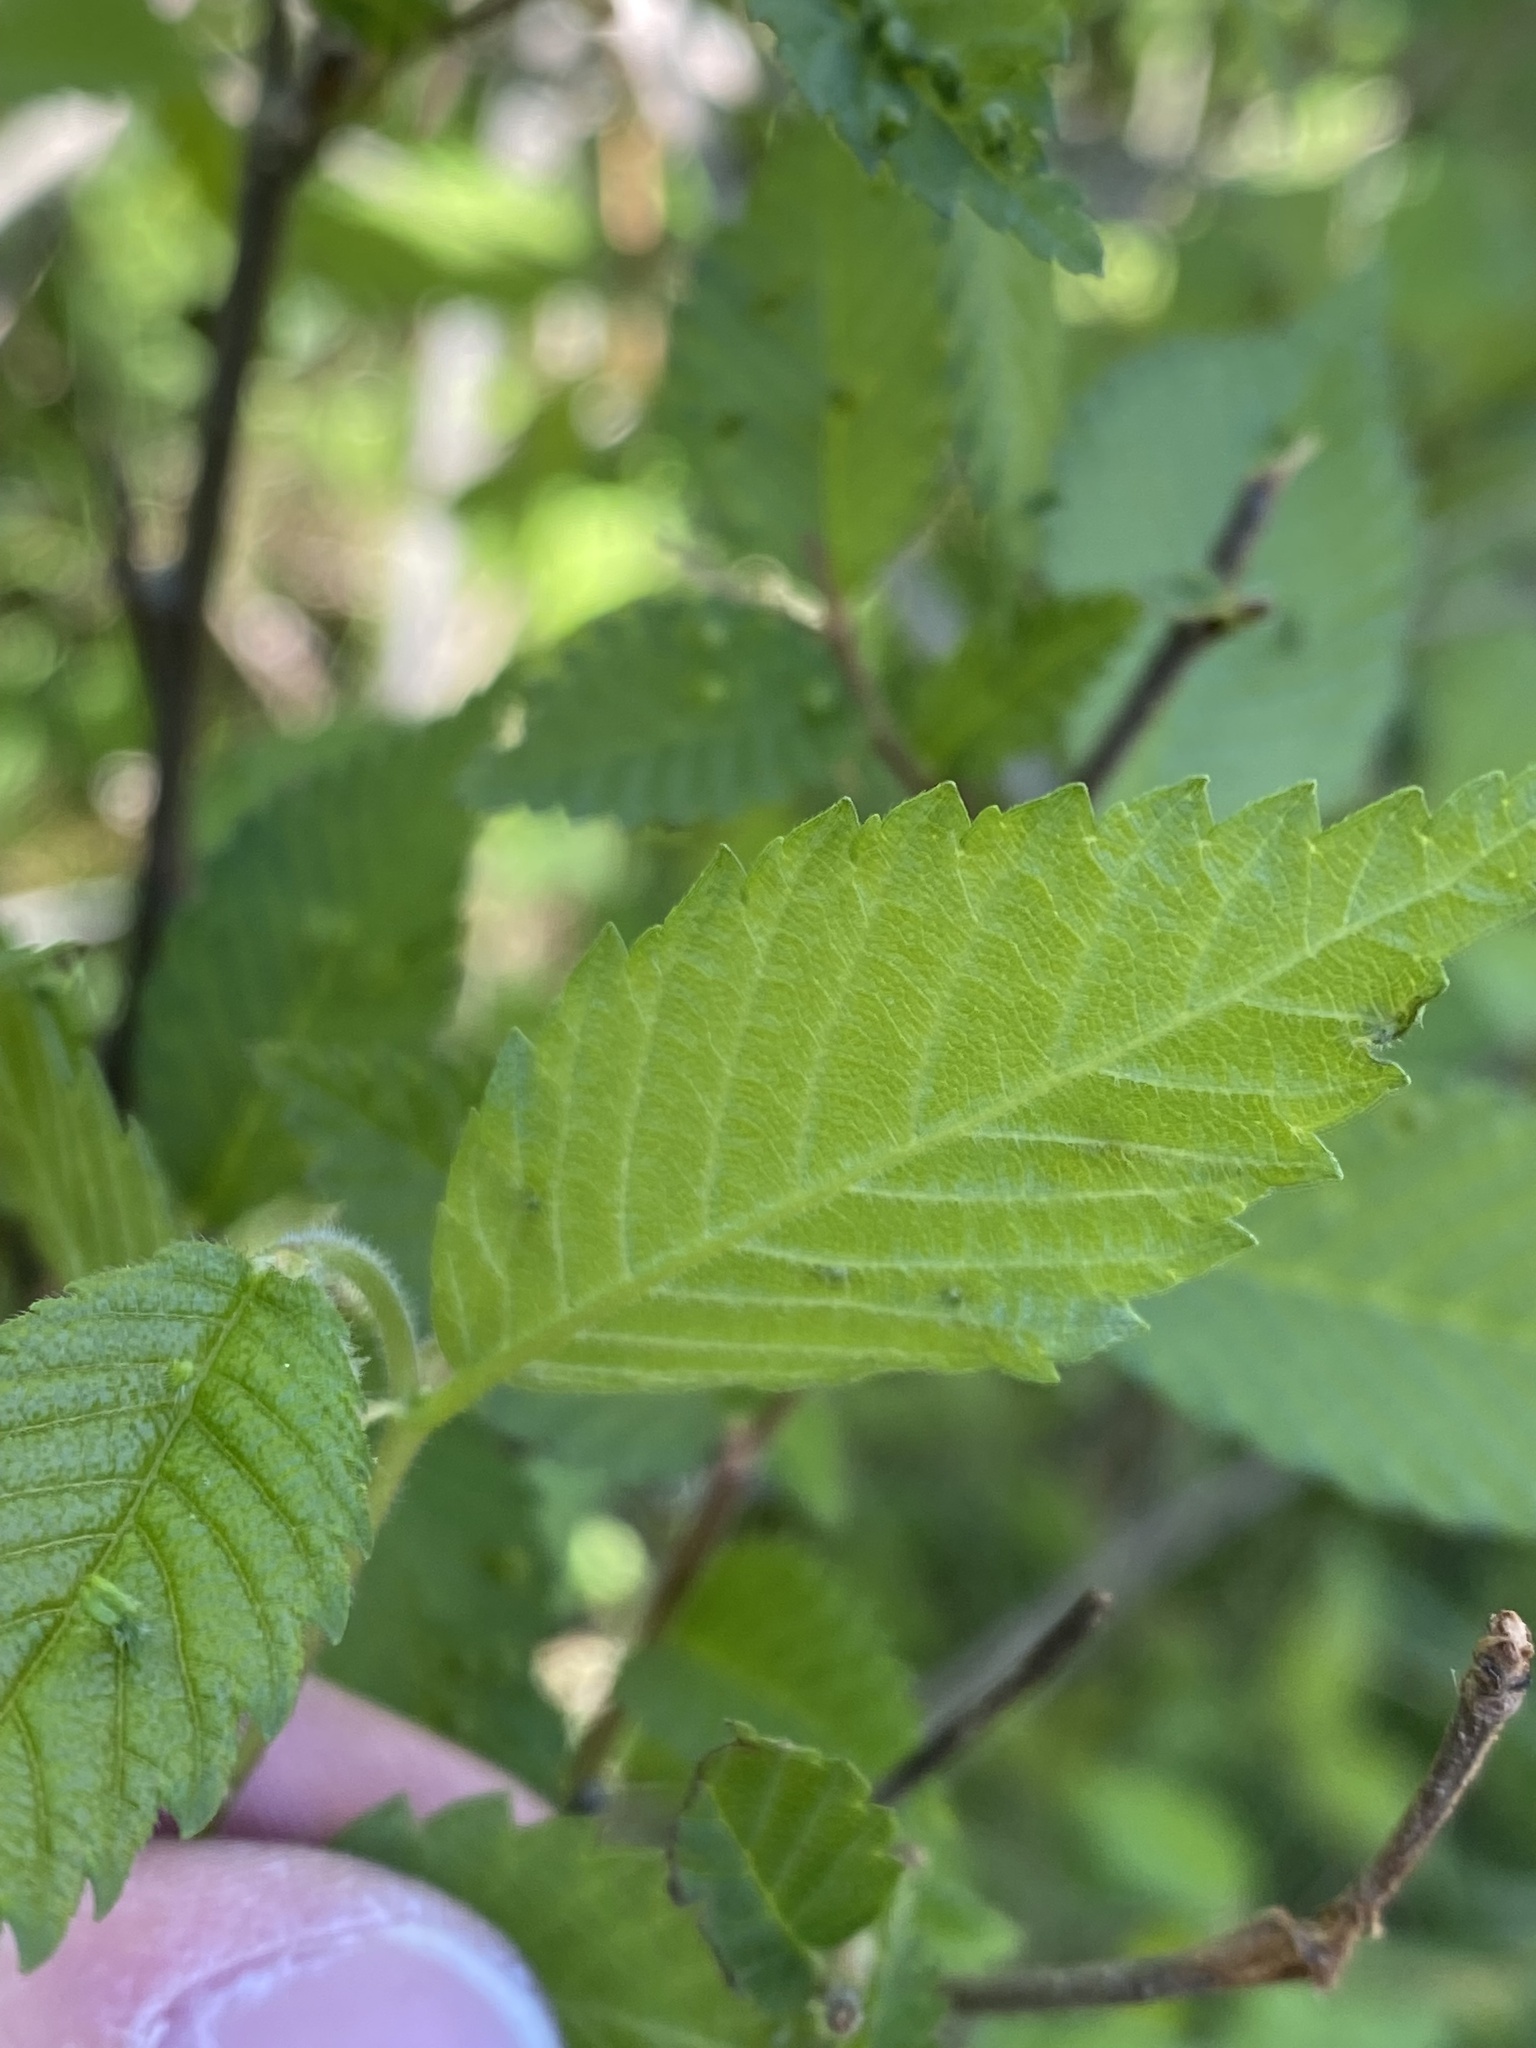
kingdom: Plantae
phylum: Tracheophyta
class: Magnoliopsida
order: Rosales
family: Rosaceae
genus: Fragaria
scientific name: Fragaria virginiana
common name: Thickleaved wild strawberry
